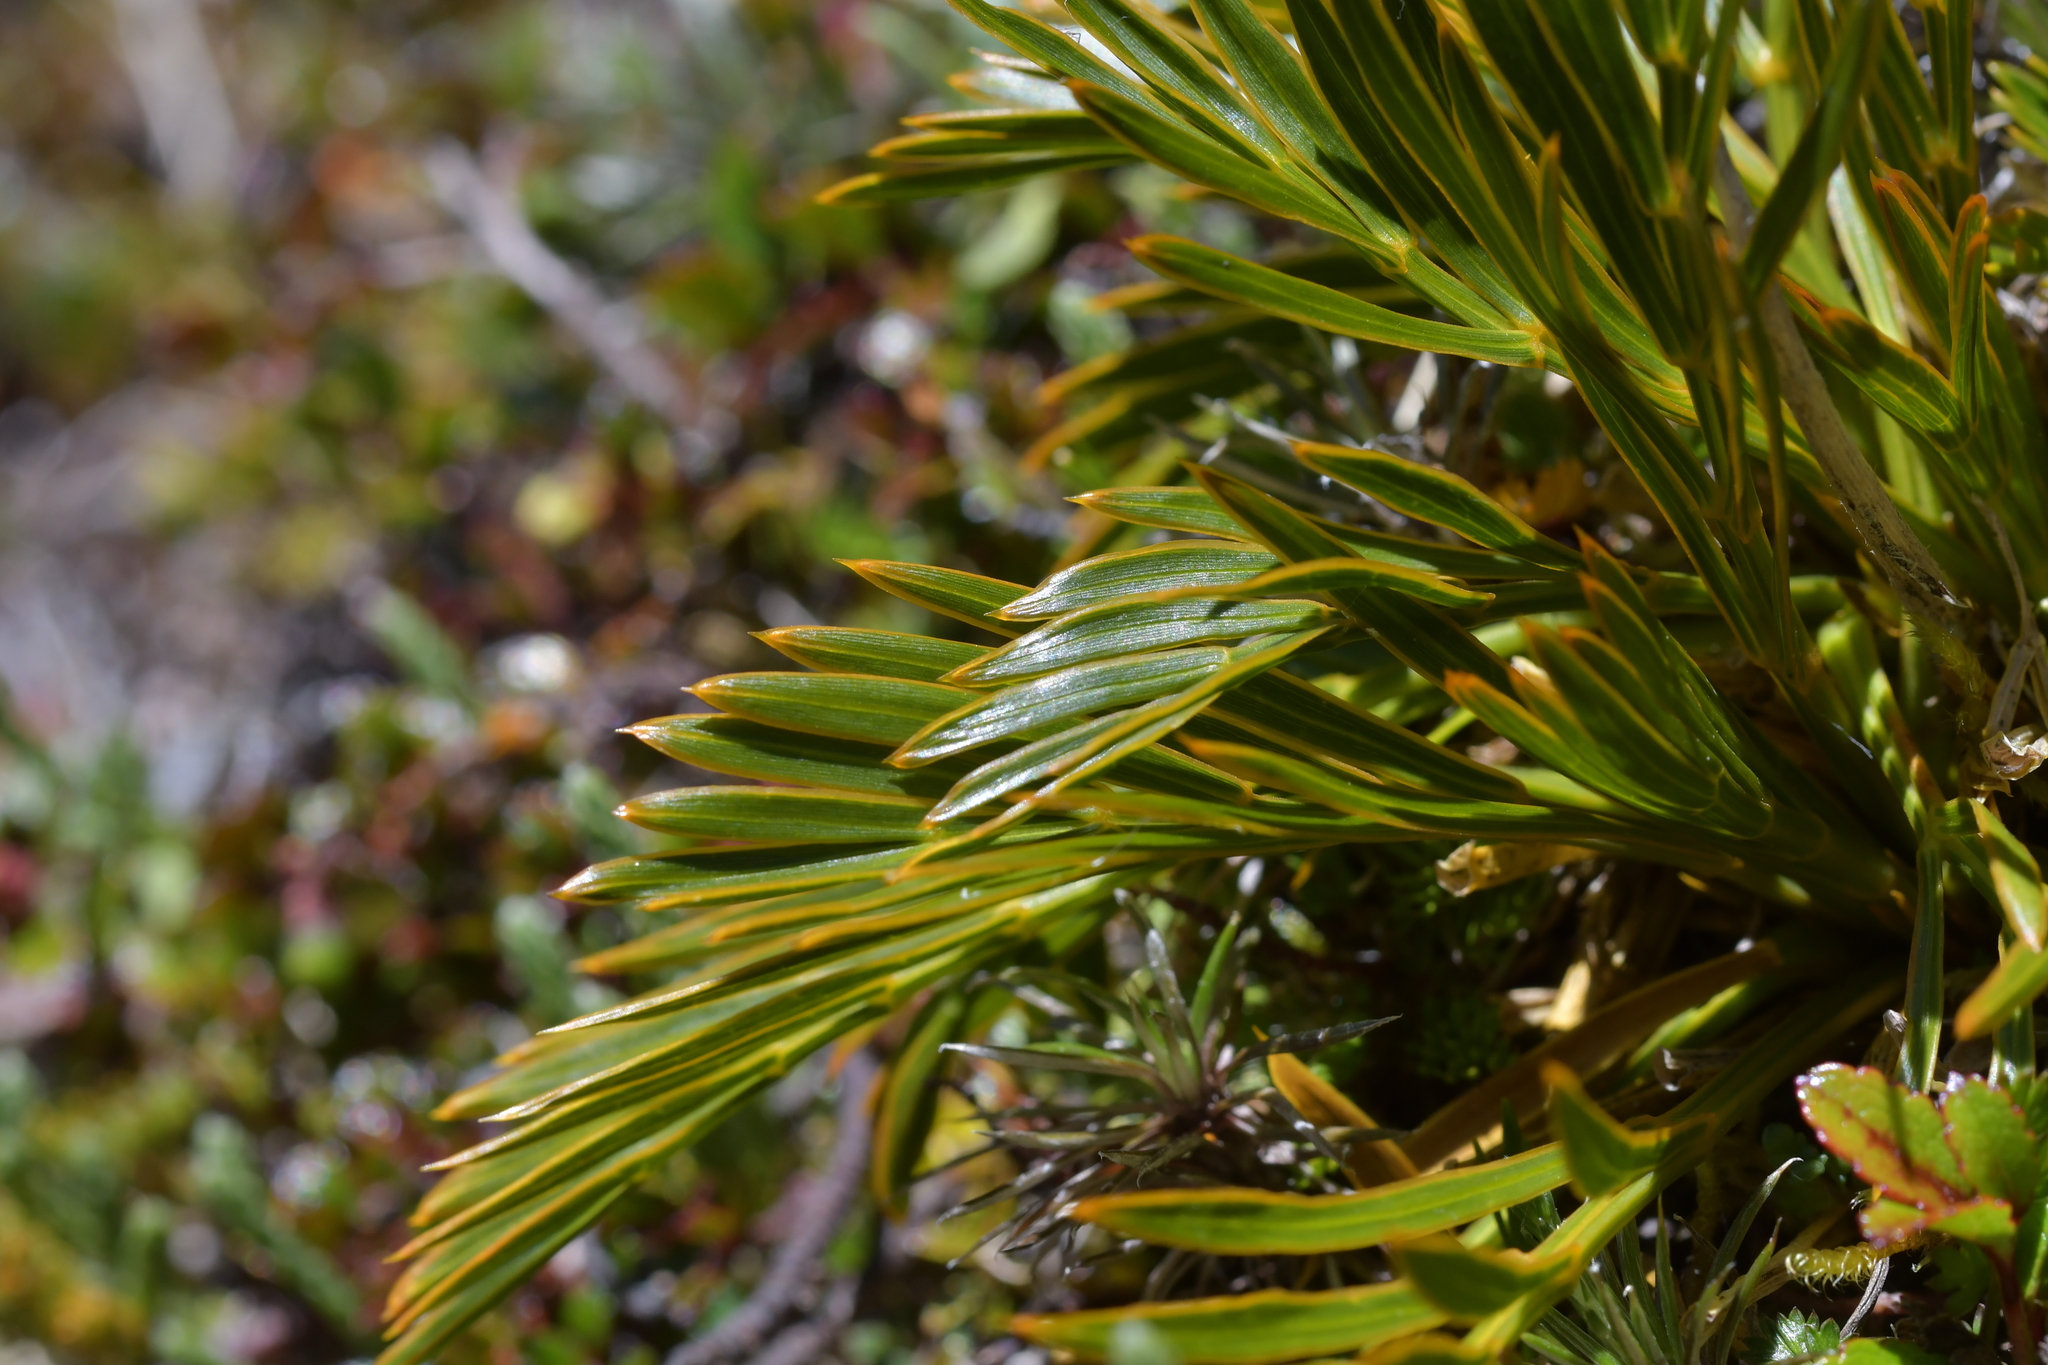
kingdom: Plantae
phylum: Tracheophyta
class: Magnoliopsida
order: Apiales
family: Apiaceae
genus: Aciphylla
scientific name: Aciphylla similis
